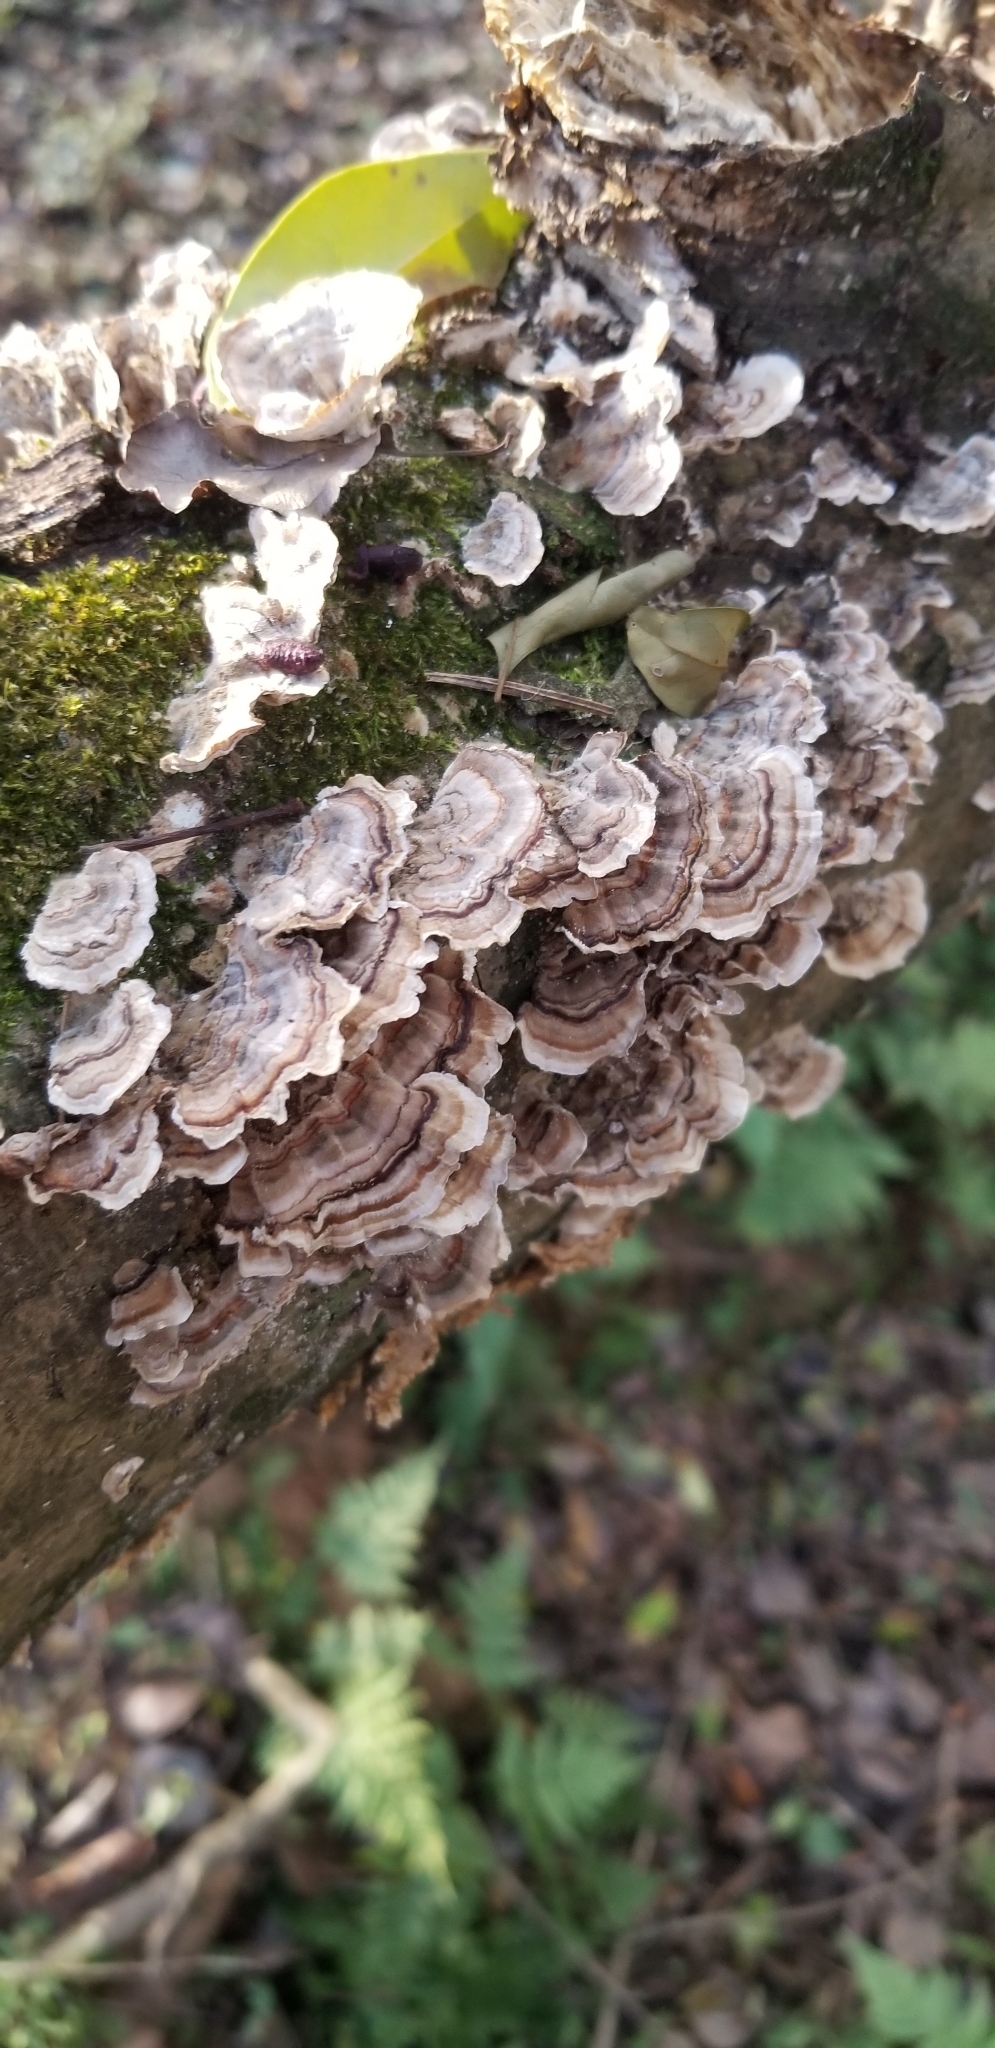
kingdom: Fungi
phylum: Basidiomycota
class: Agaricomycetes
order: Polyporales
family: Polyporaceae
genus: Trametes
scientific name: Trametes versicolor
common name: Turkeytail
